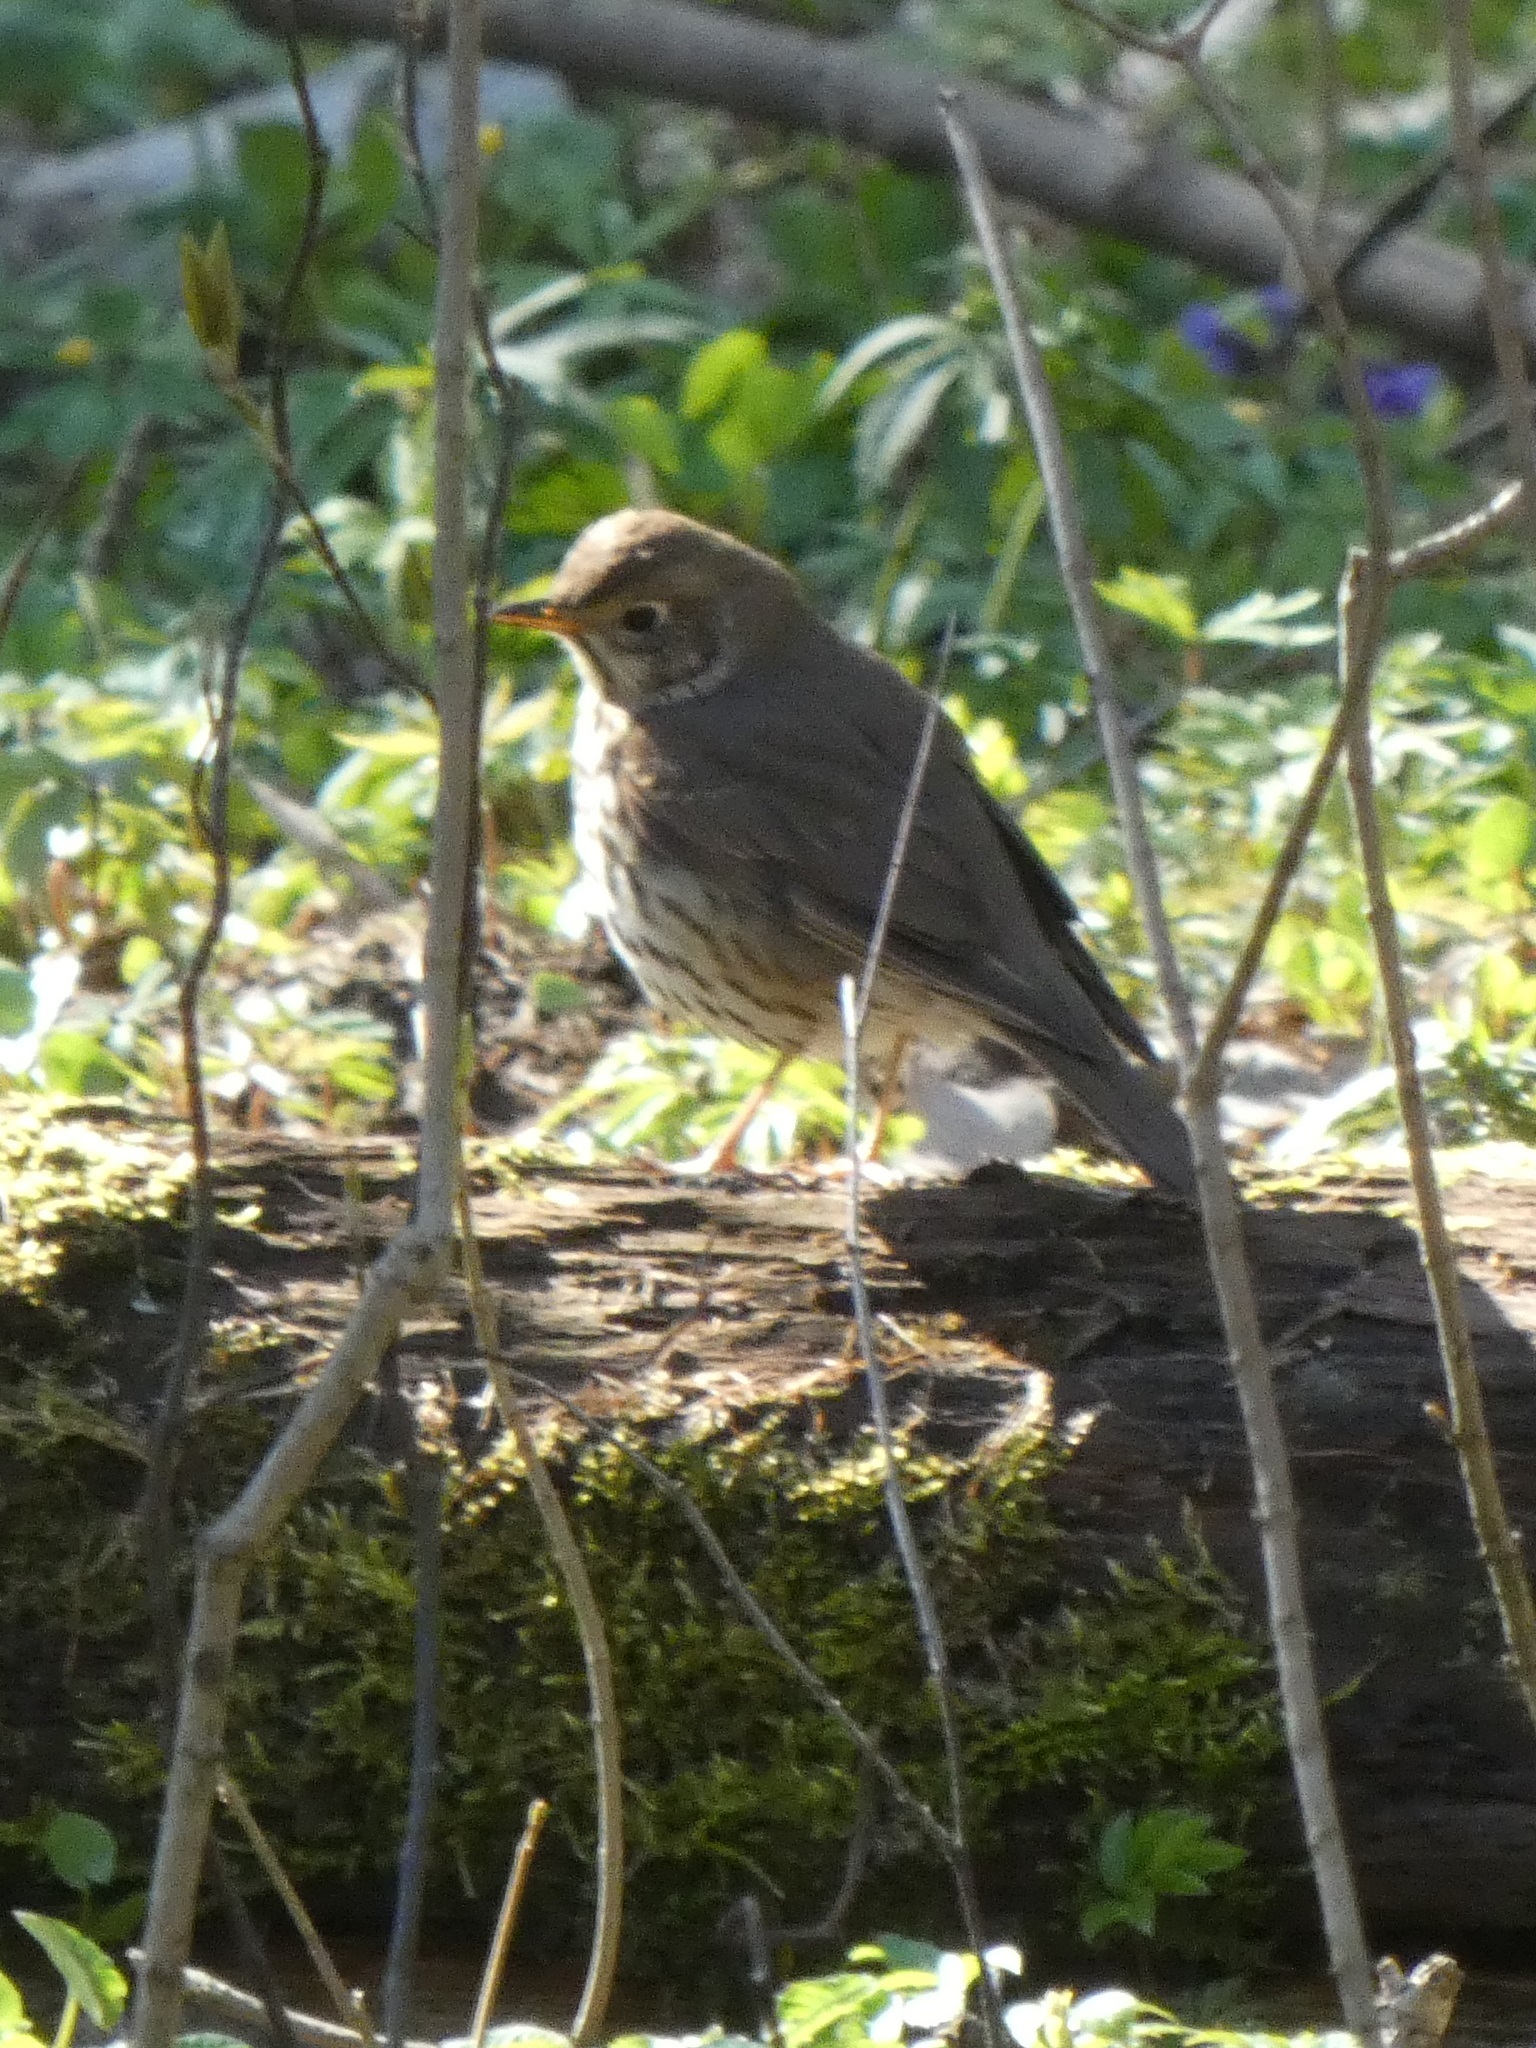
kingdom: Animalia
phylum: Chordata
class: Aves
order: Passeriformes
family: Turdidae
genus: Turdus
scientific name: Turdus philomelos
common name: Song thrush
